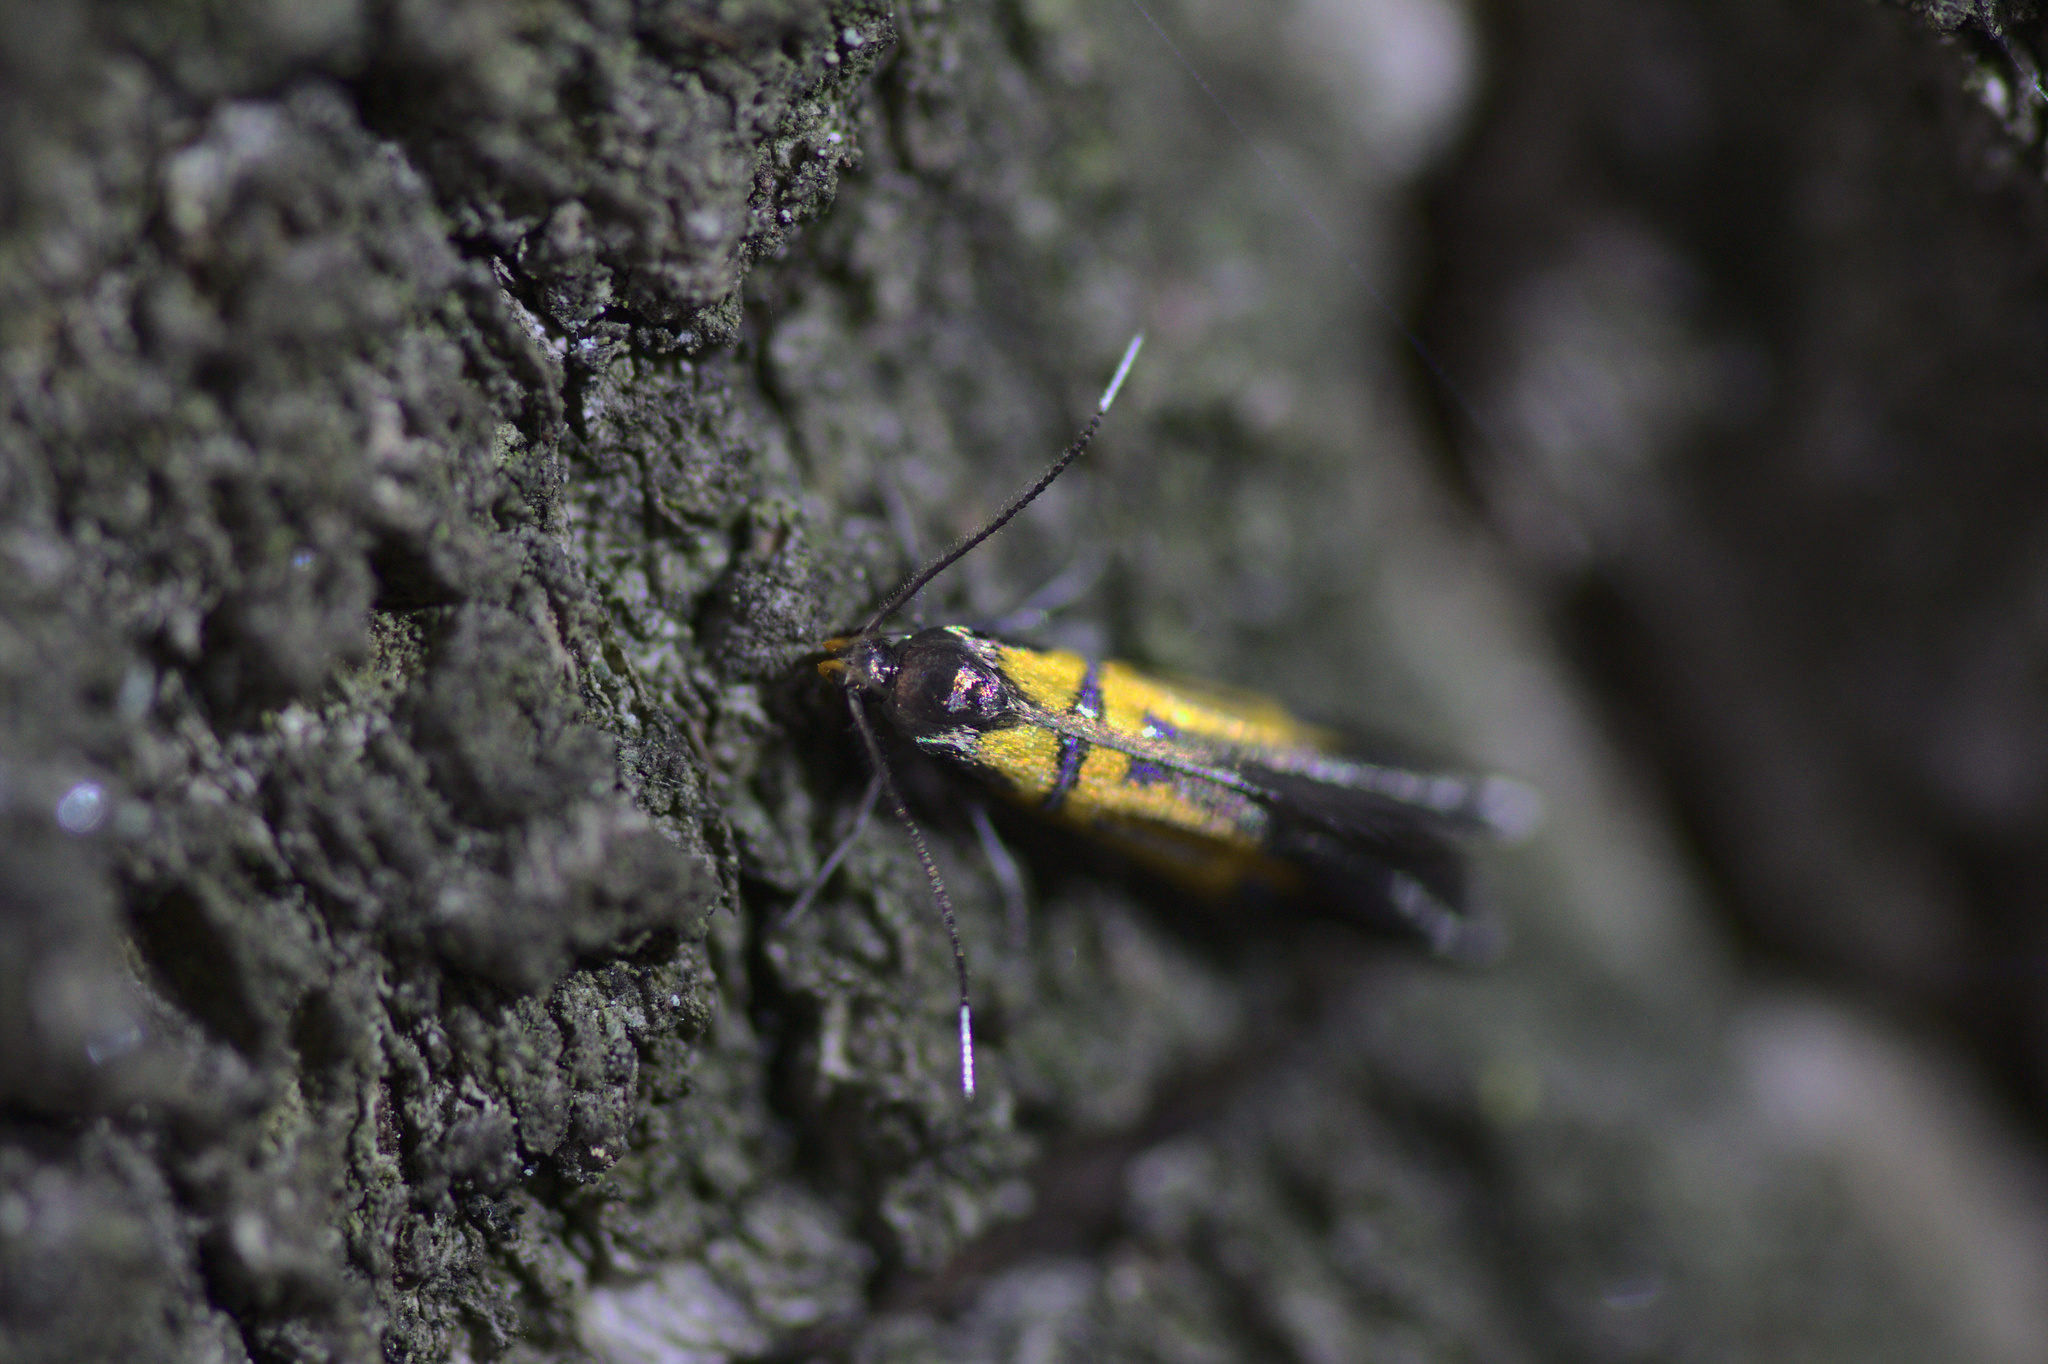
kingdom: Animalia
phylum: Arthropoda
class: Insecta
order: Lepidoptera
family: Oecophoridae
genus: Schiffermuelleria
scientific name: Schiffermuelleria schaefferella
